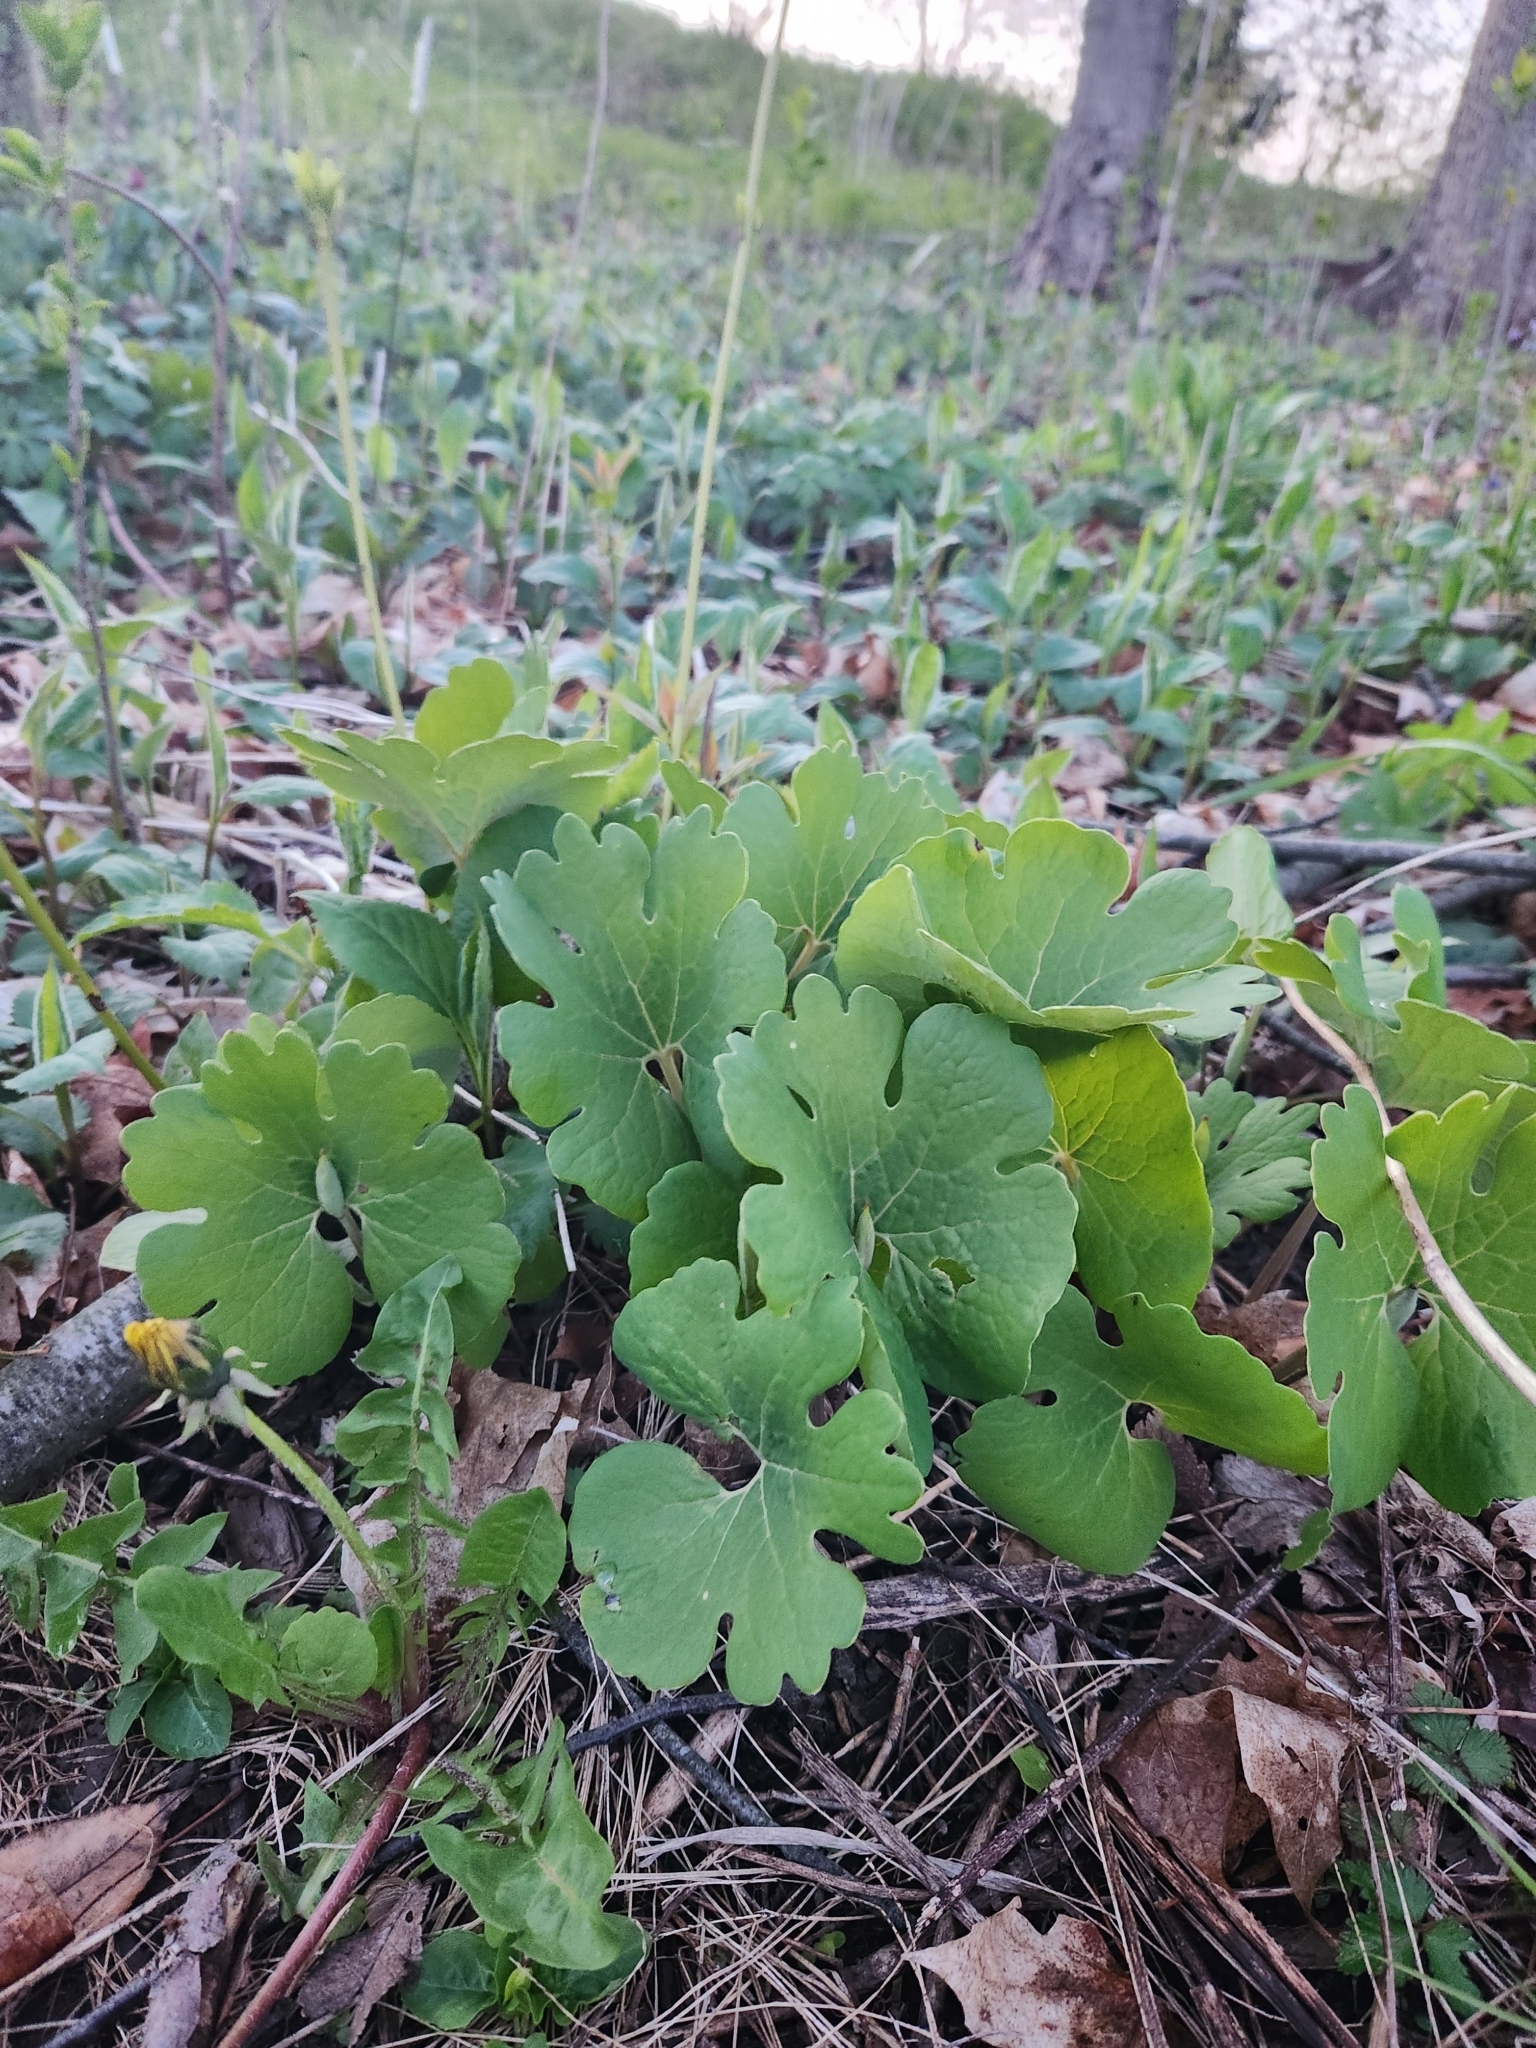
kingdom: Plantae
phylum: Tracheophyta
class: Magnoliopsida
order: Ranunculales
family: Papaveraceae
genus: Sanguinaria
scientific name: Sanguinaria canadensis
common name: Bloodroot
